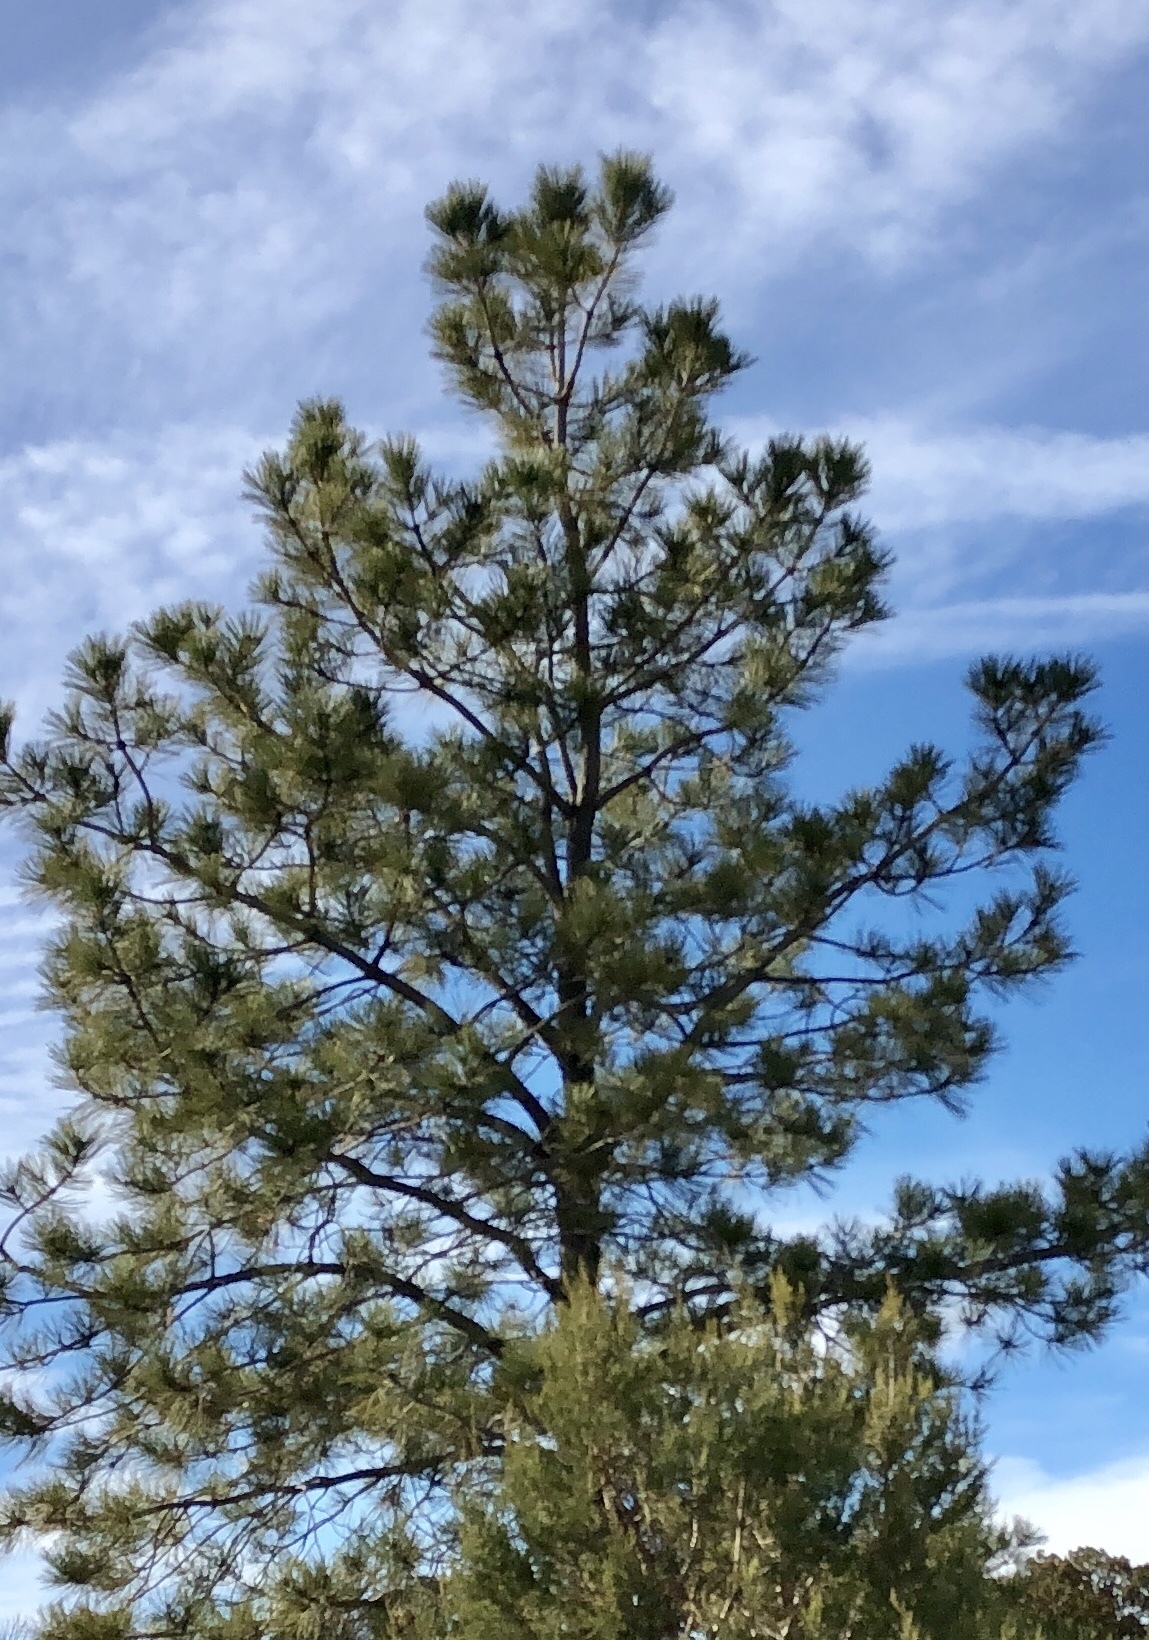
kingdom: Plantae
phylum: Tracheophyta
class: Pinopsida
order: Pinales
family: Pinaceae
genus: Pinus
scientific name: Pinus ponderosa
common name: Western yellow-pine
